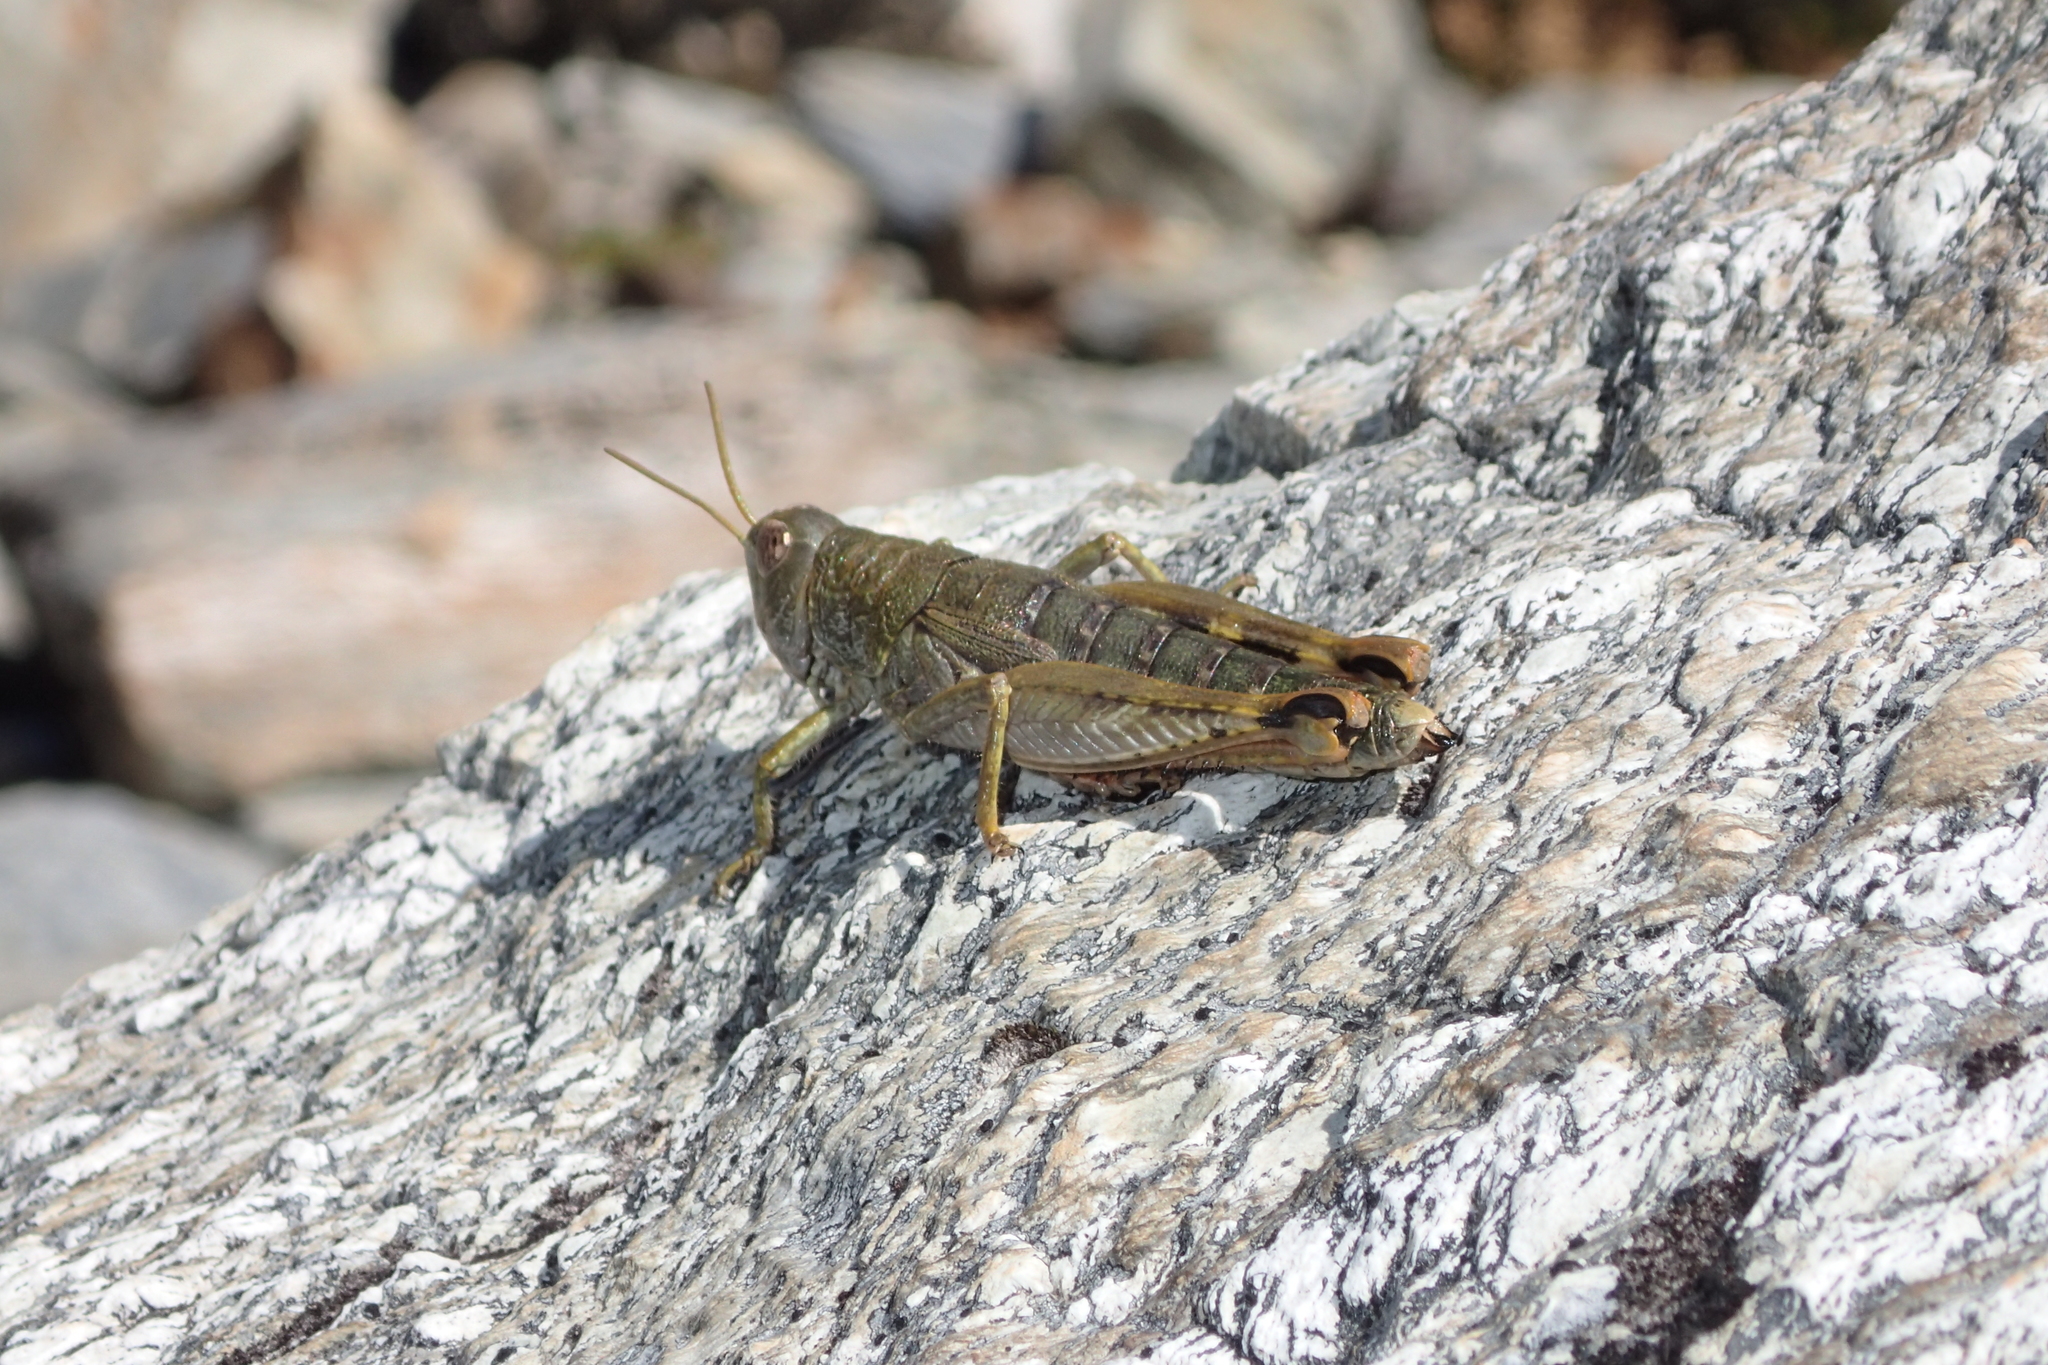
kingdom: Animalia
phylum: Arthropoda
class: Insecta
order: Orthoptera
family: Acrididae
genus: Sigaus
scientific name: Sigaus
